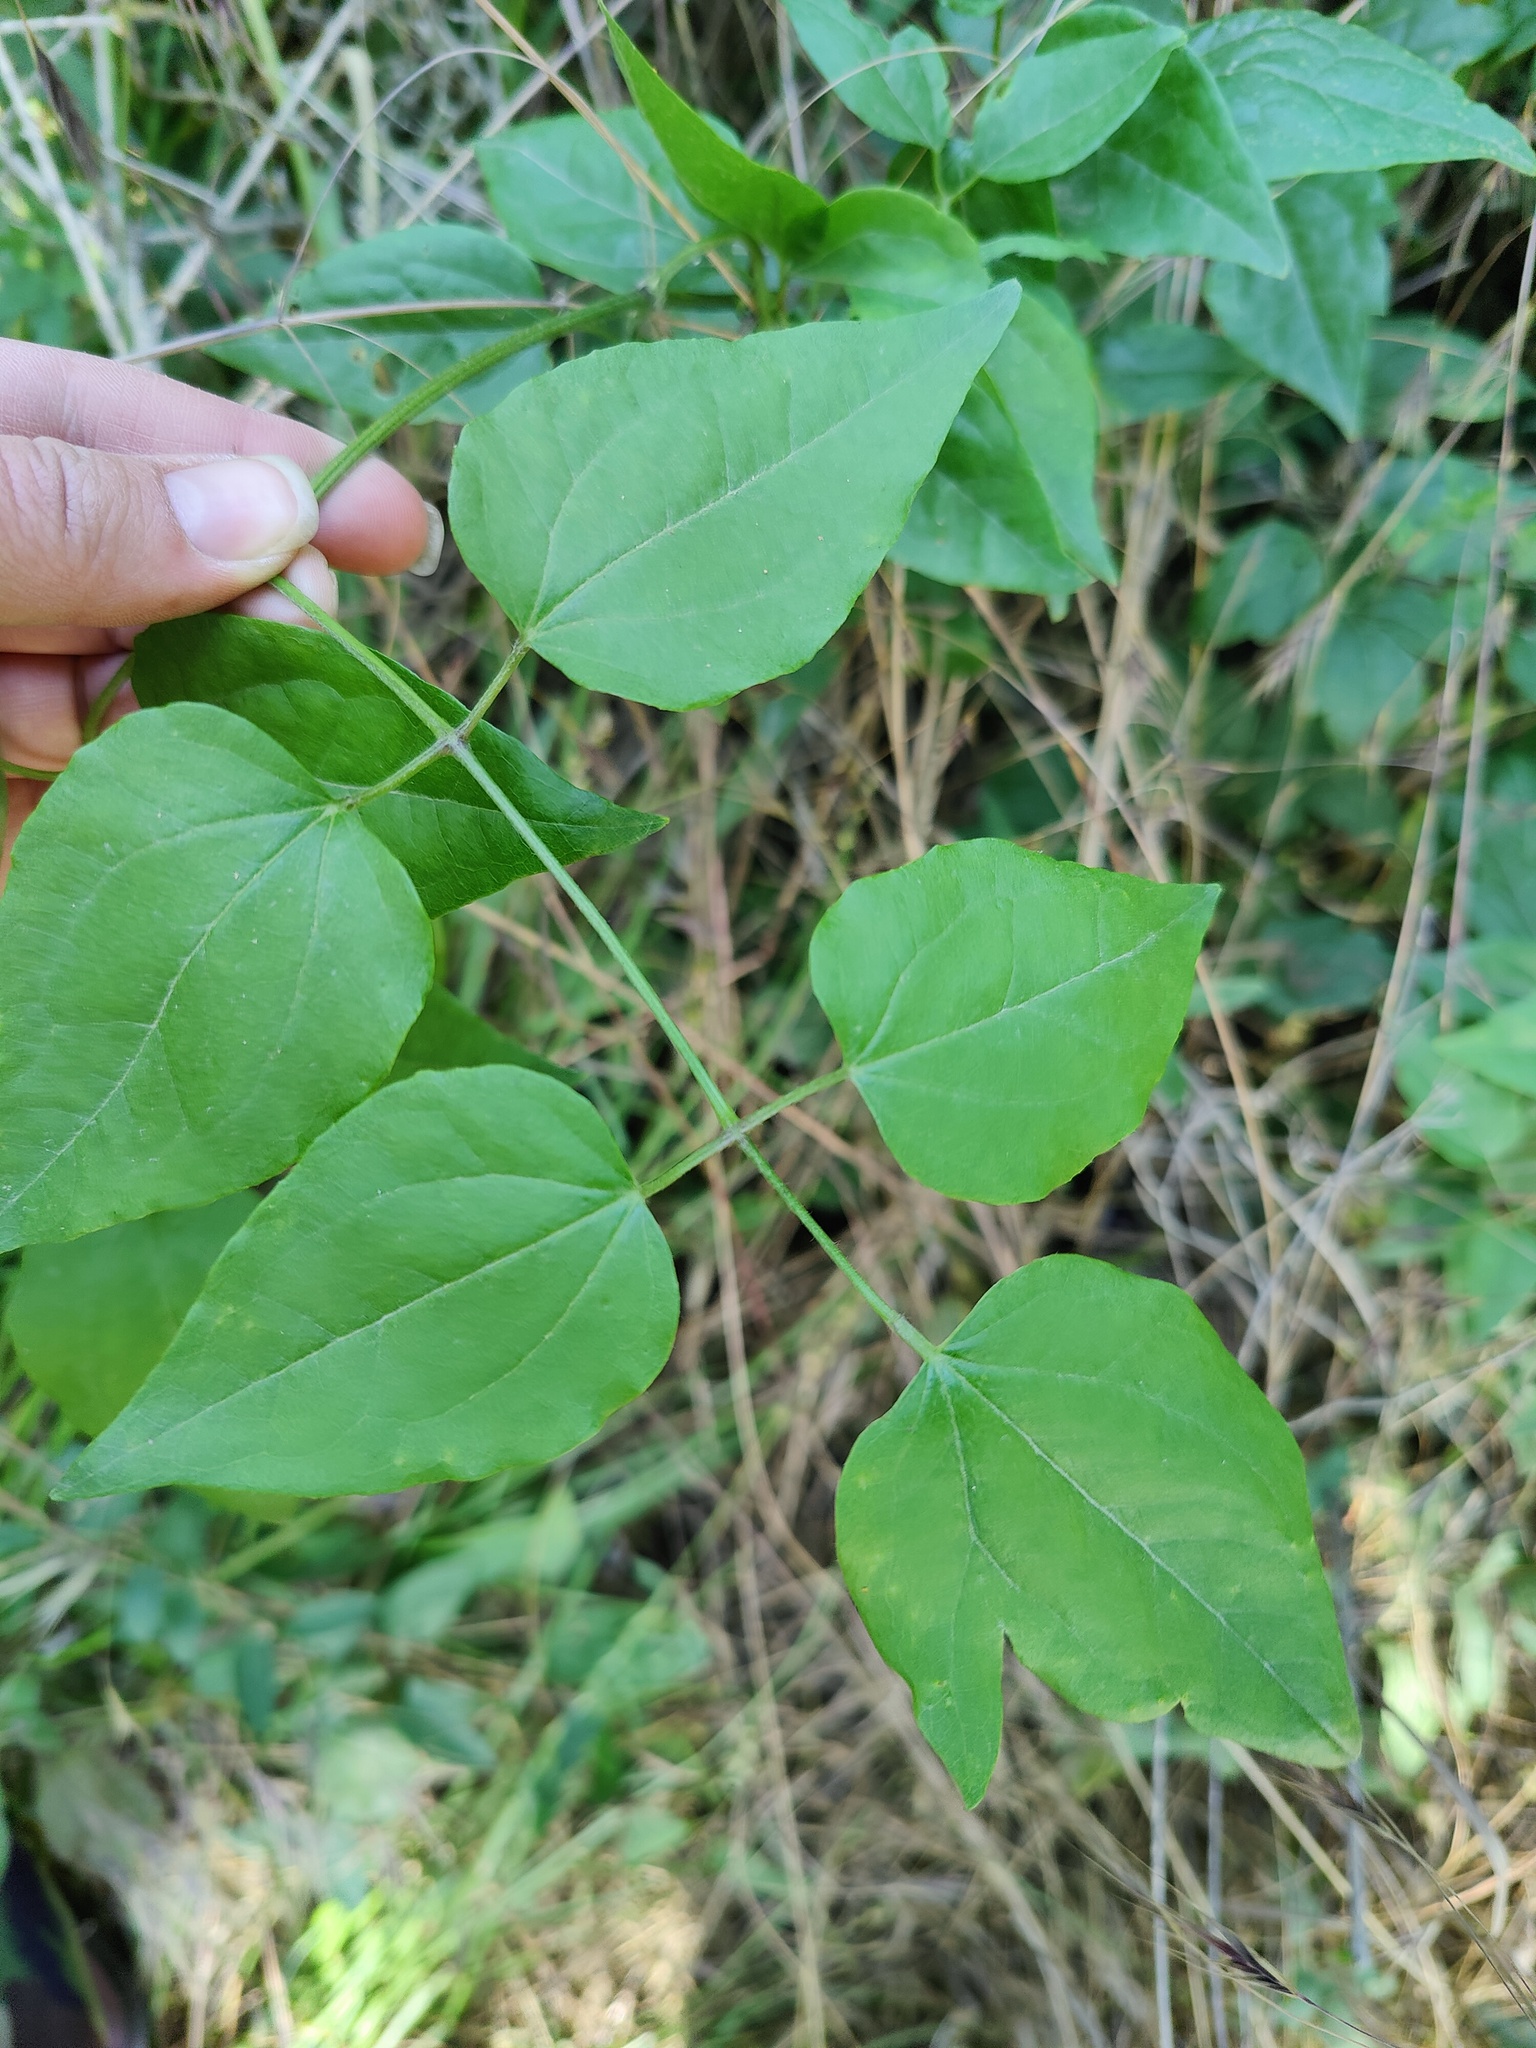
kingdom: Plantae
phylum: Tracheophyta
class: Magnoliopsida
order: Ranunculales
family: Ranunculaceae
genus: Clematis
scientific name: Clematis vitalba
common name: Evergreen clematis
